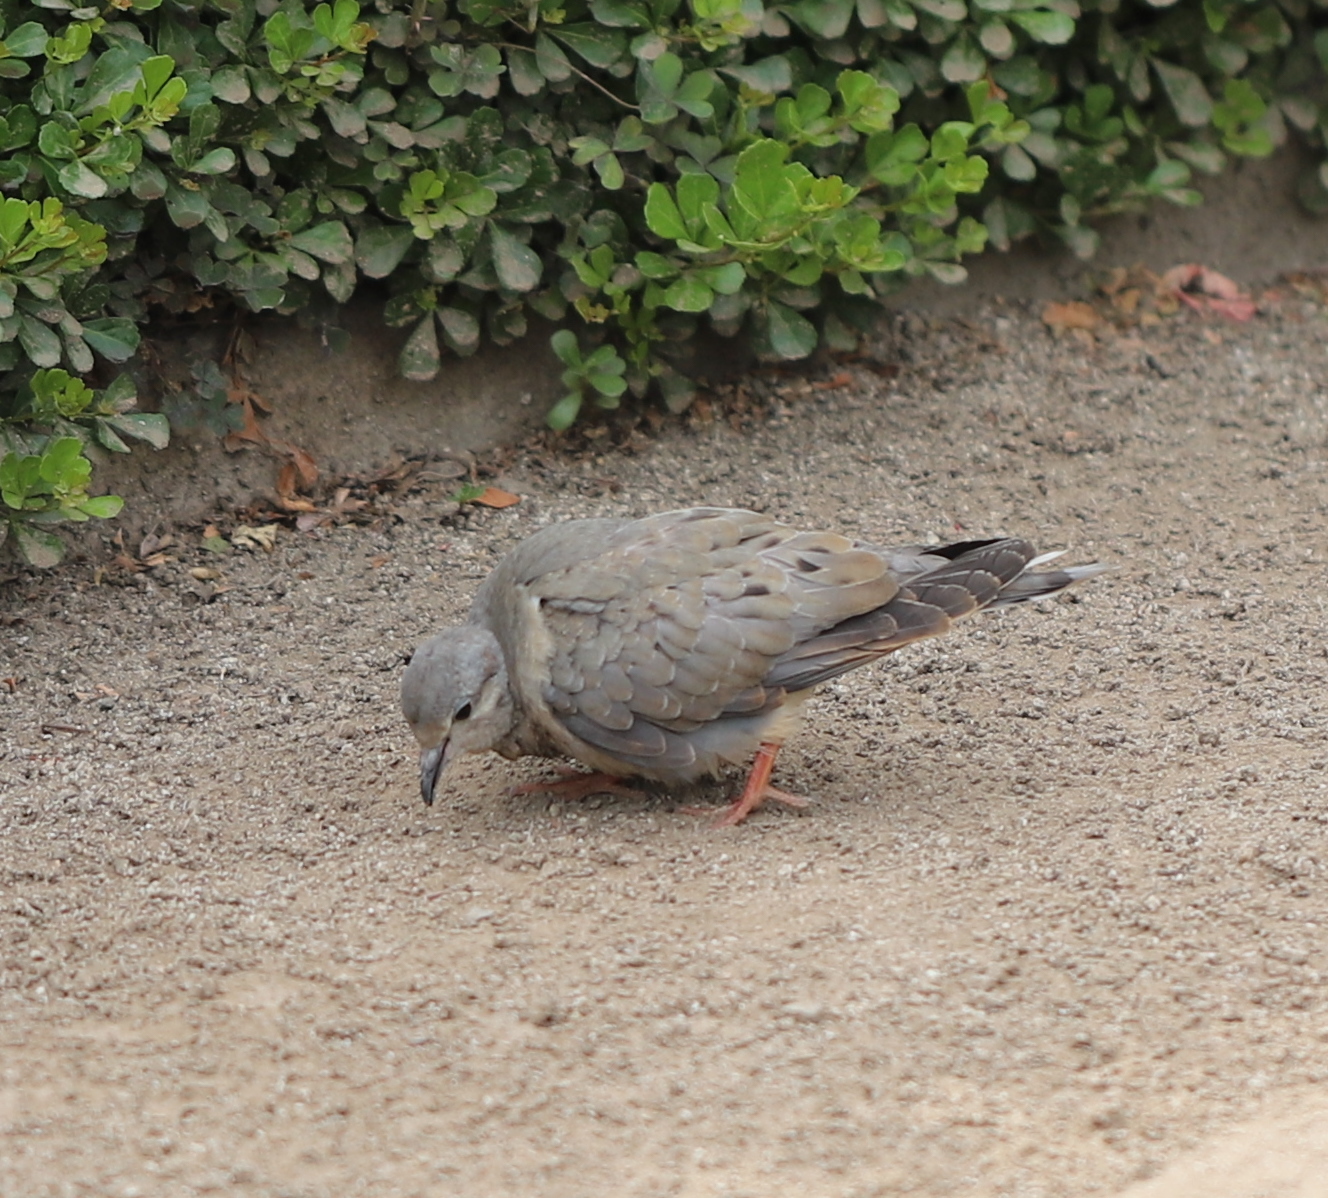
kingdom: Animalia
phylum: Chordata
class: Aves
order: Columbiformes
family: Columbidae
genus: Zenaida
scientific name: Zenaida auriculata
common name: Eared dove
